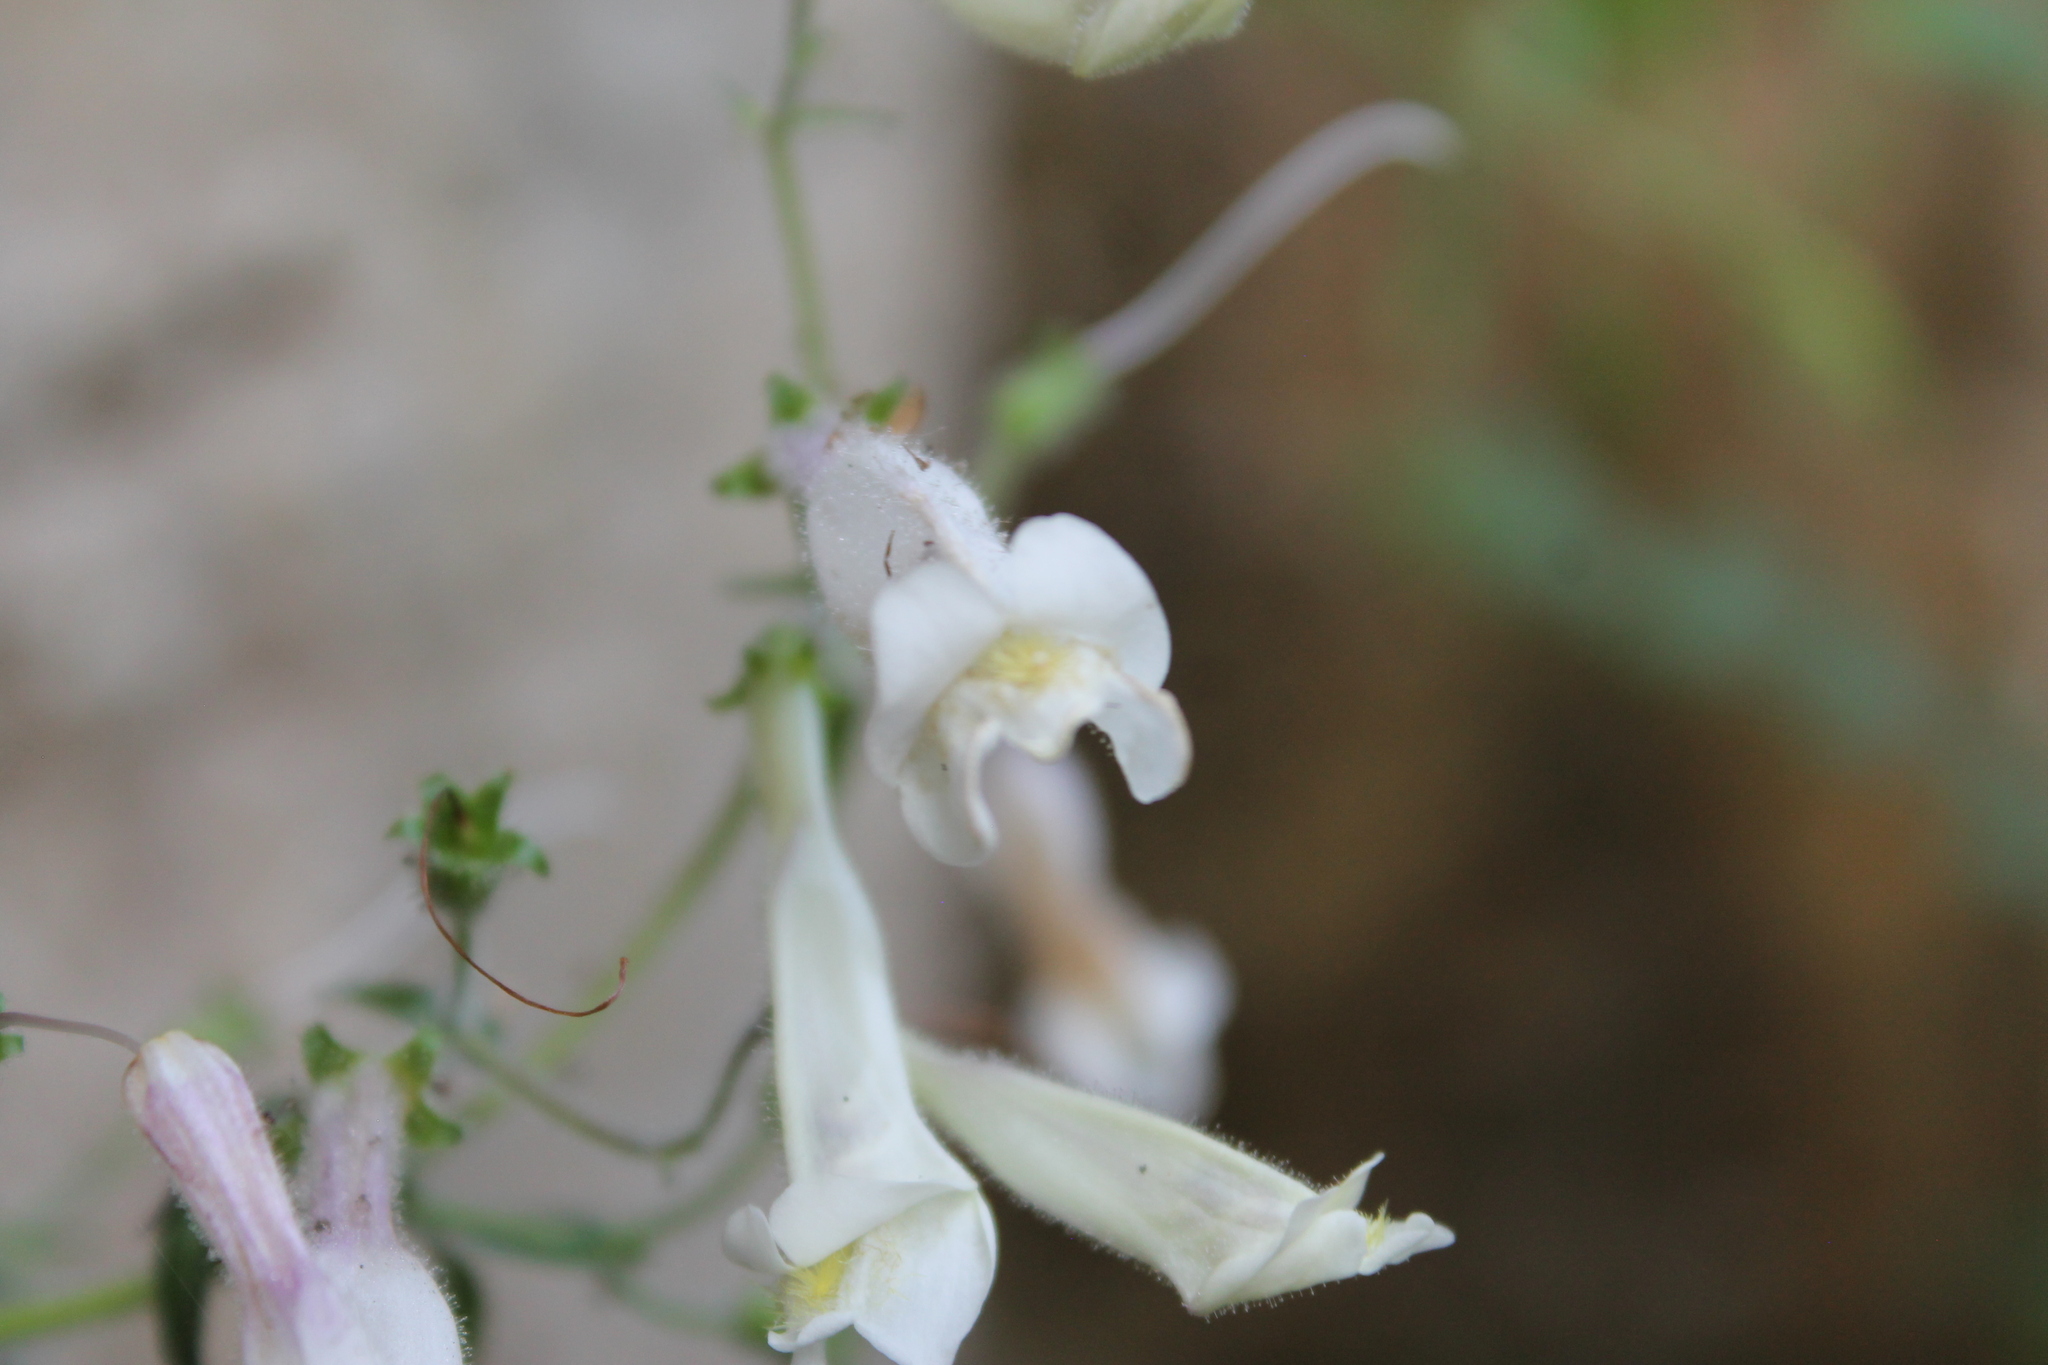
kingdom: Plantae
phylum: Tracheophyta
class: Magnoliopsida
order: Lamiales
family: Plantaginaceae
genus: Penstemon
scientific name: Penstemon tenuiflorus
